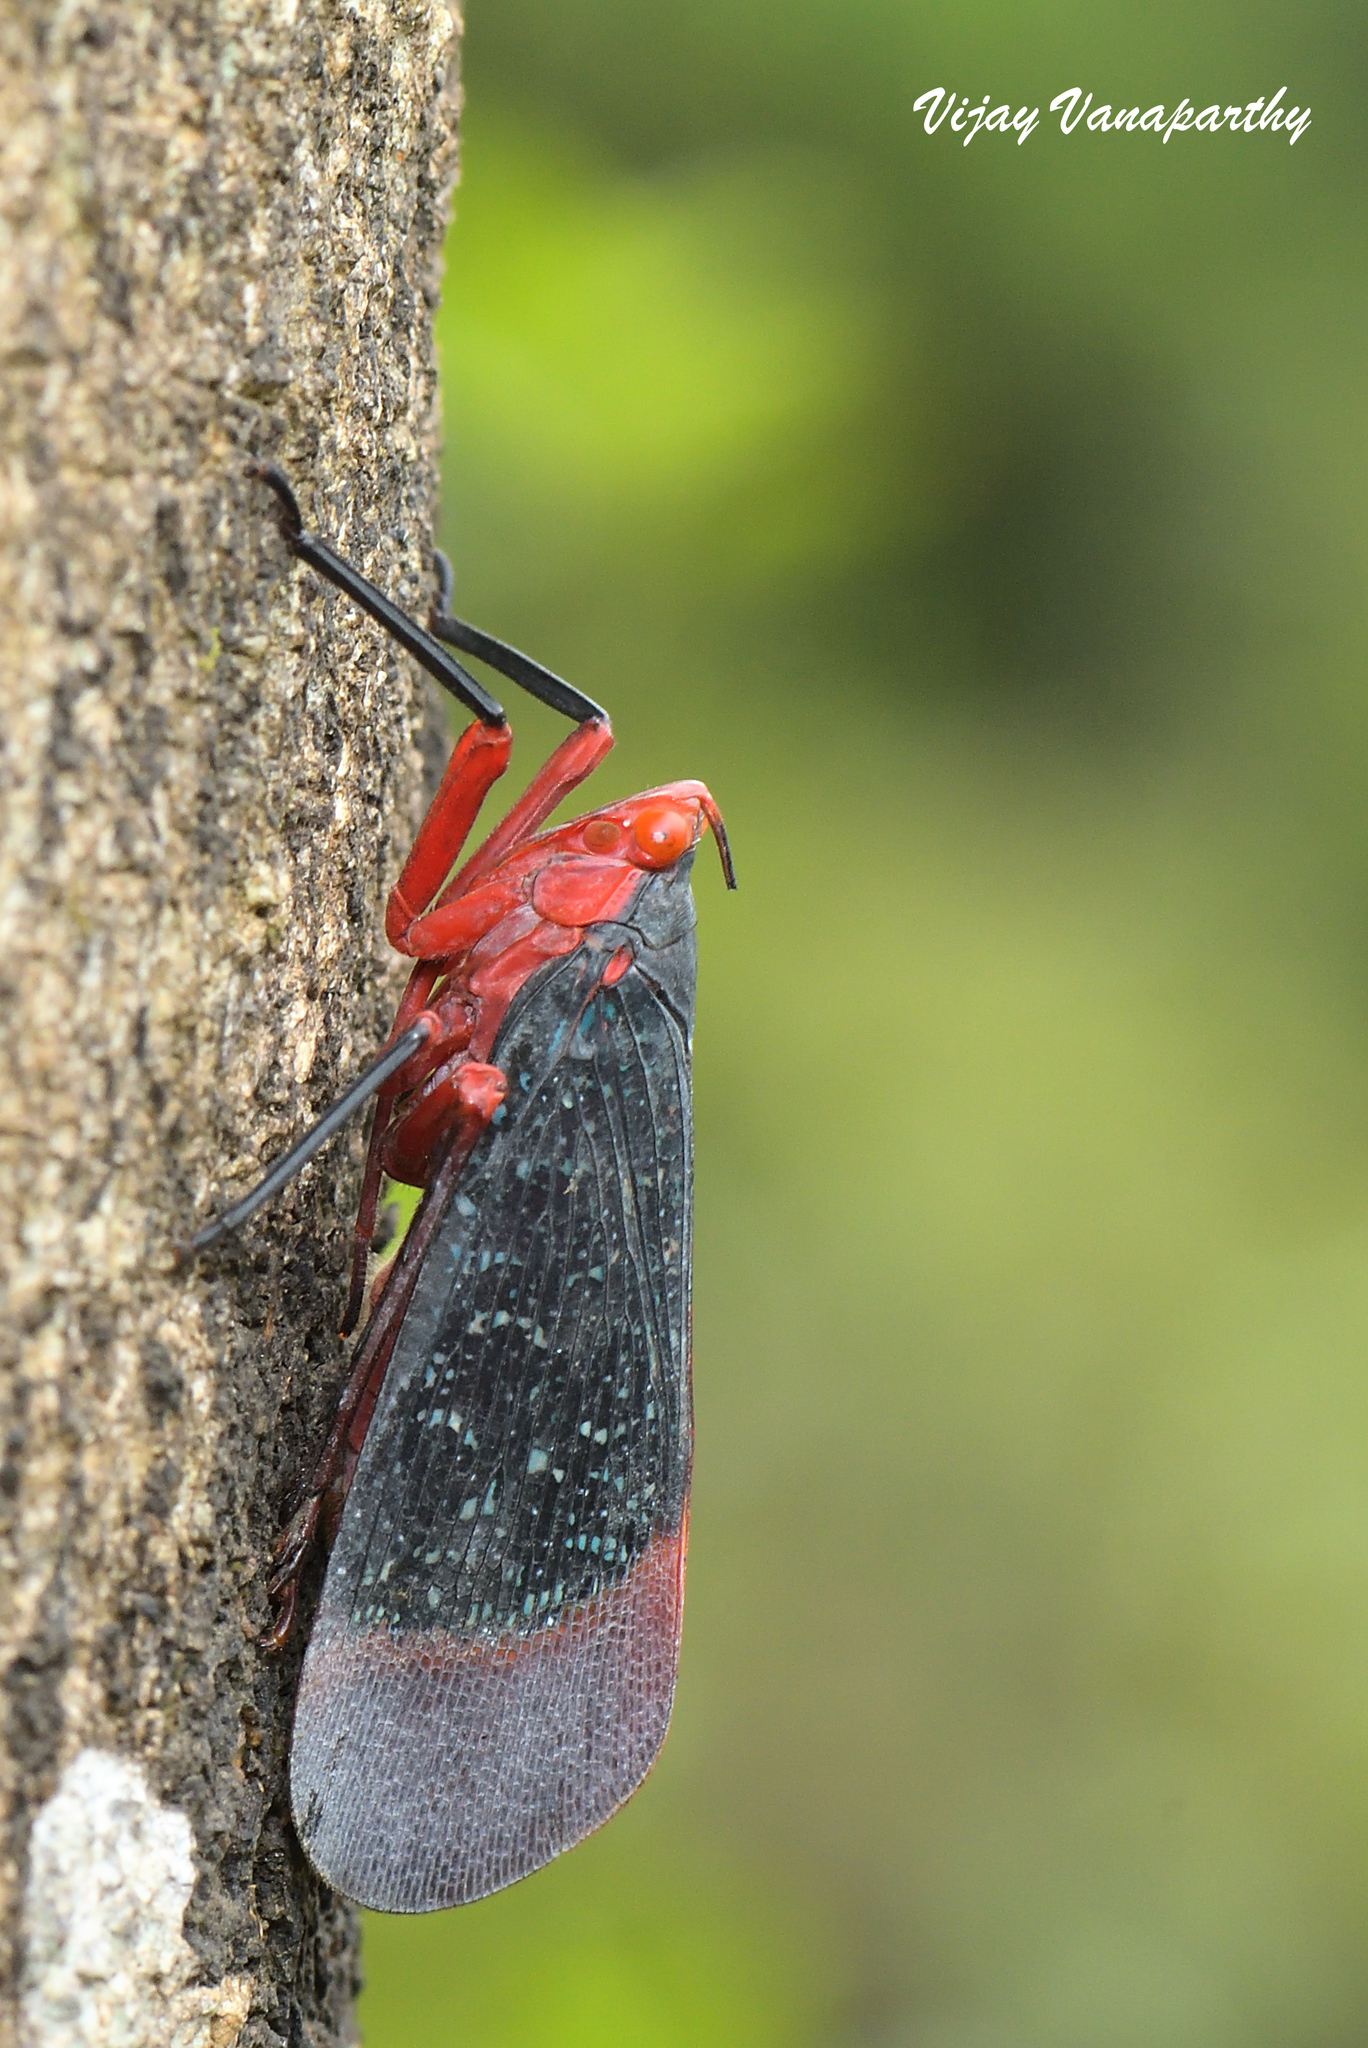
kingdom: Animalia
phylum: Arthropoda
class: Insecta
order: Hemiptera
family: Fulgoridae
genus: Kalidasa
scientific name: Kalidasa lanata
